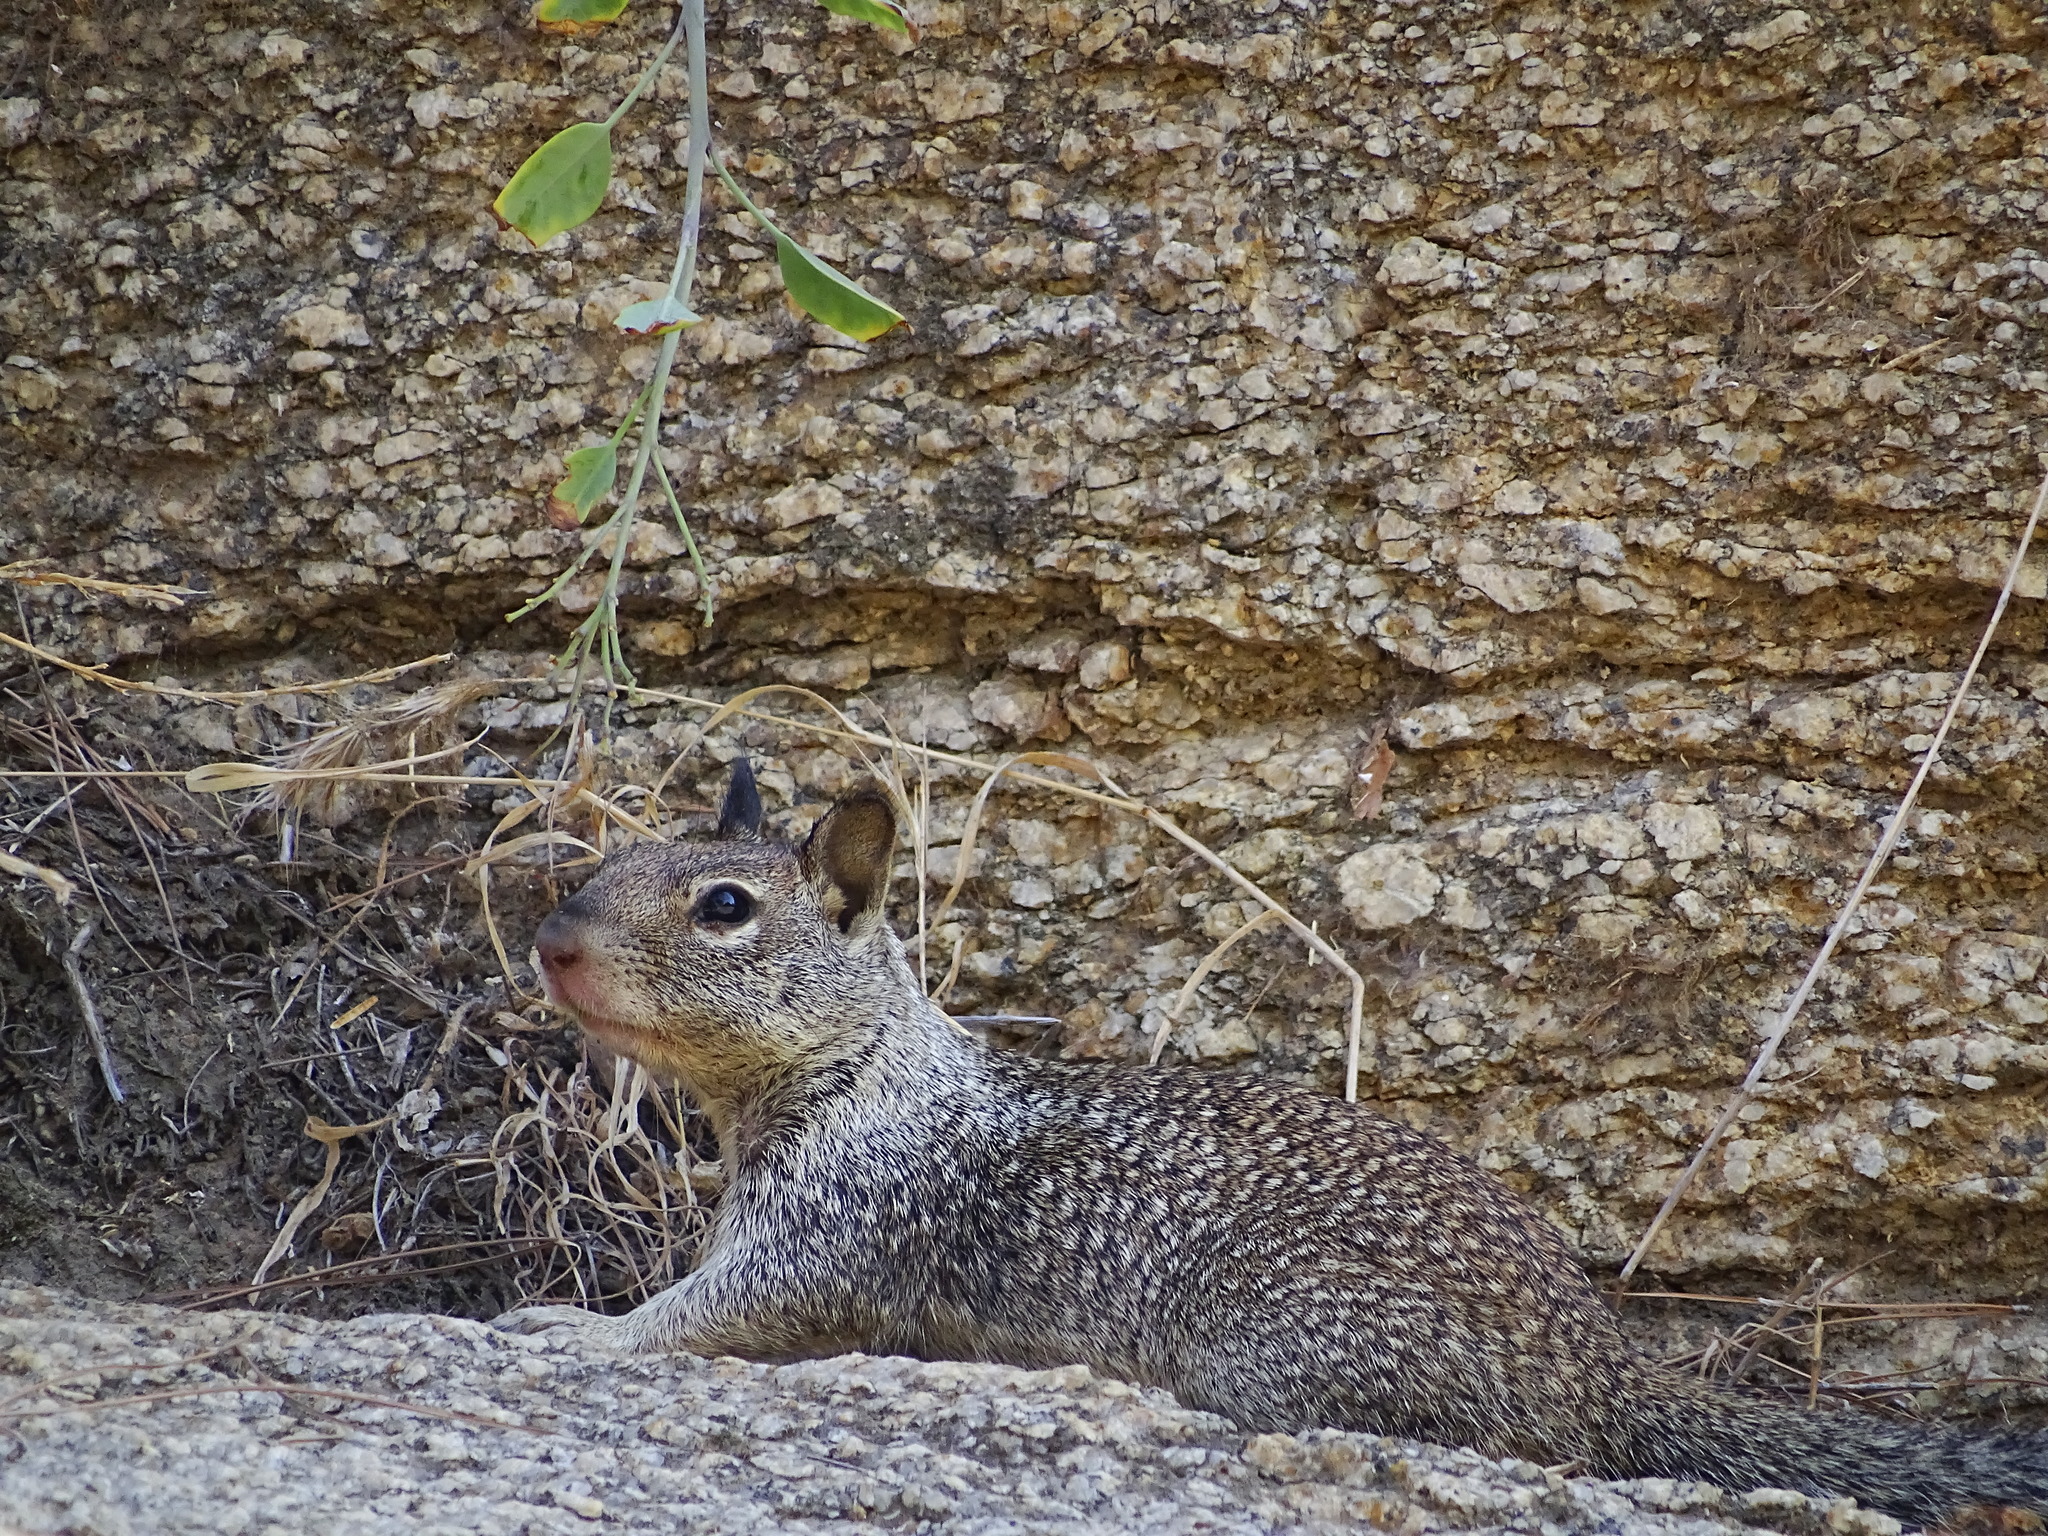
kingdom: Animalia
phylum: Chordata
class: Mammalia
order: Rodentia
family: Sciuridae
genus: Otospermophilus
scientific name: Otospermophilus beecheyi
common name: California ground squirrel
